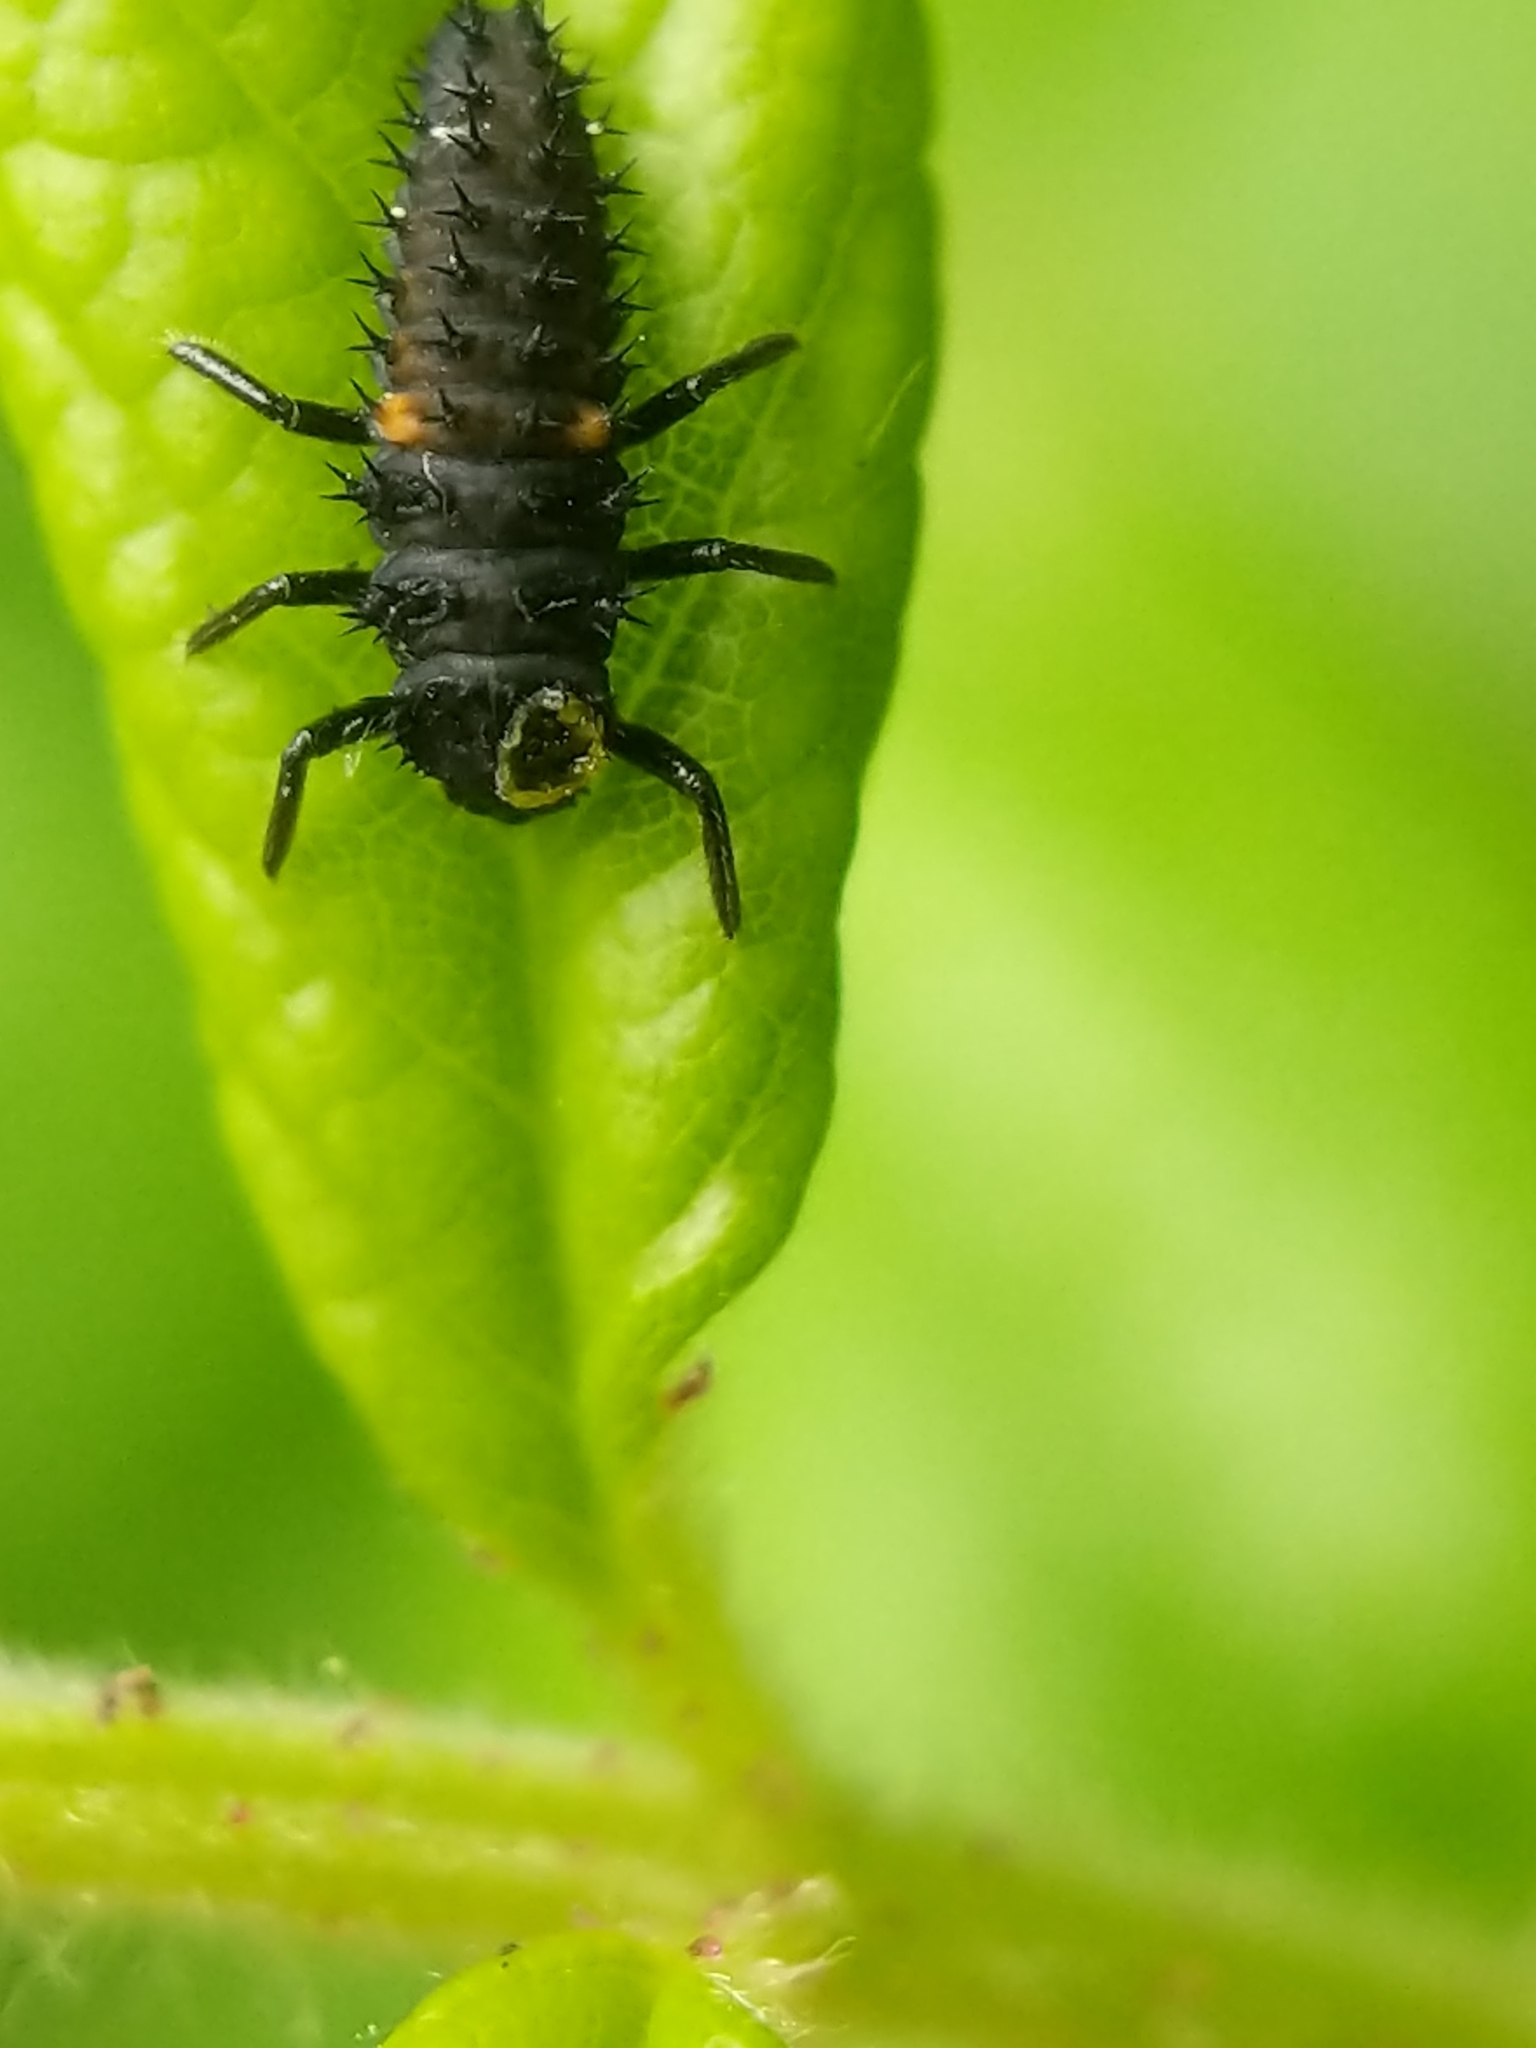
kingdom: Animalia
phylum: Arthropoda
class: Insecta
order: Coleoptera
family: Coccinellidae
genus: Harmonia
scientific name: Harmonia axyridis
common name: Harlequin ladybird
